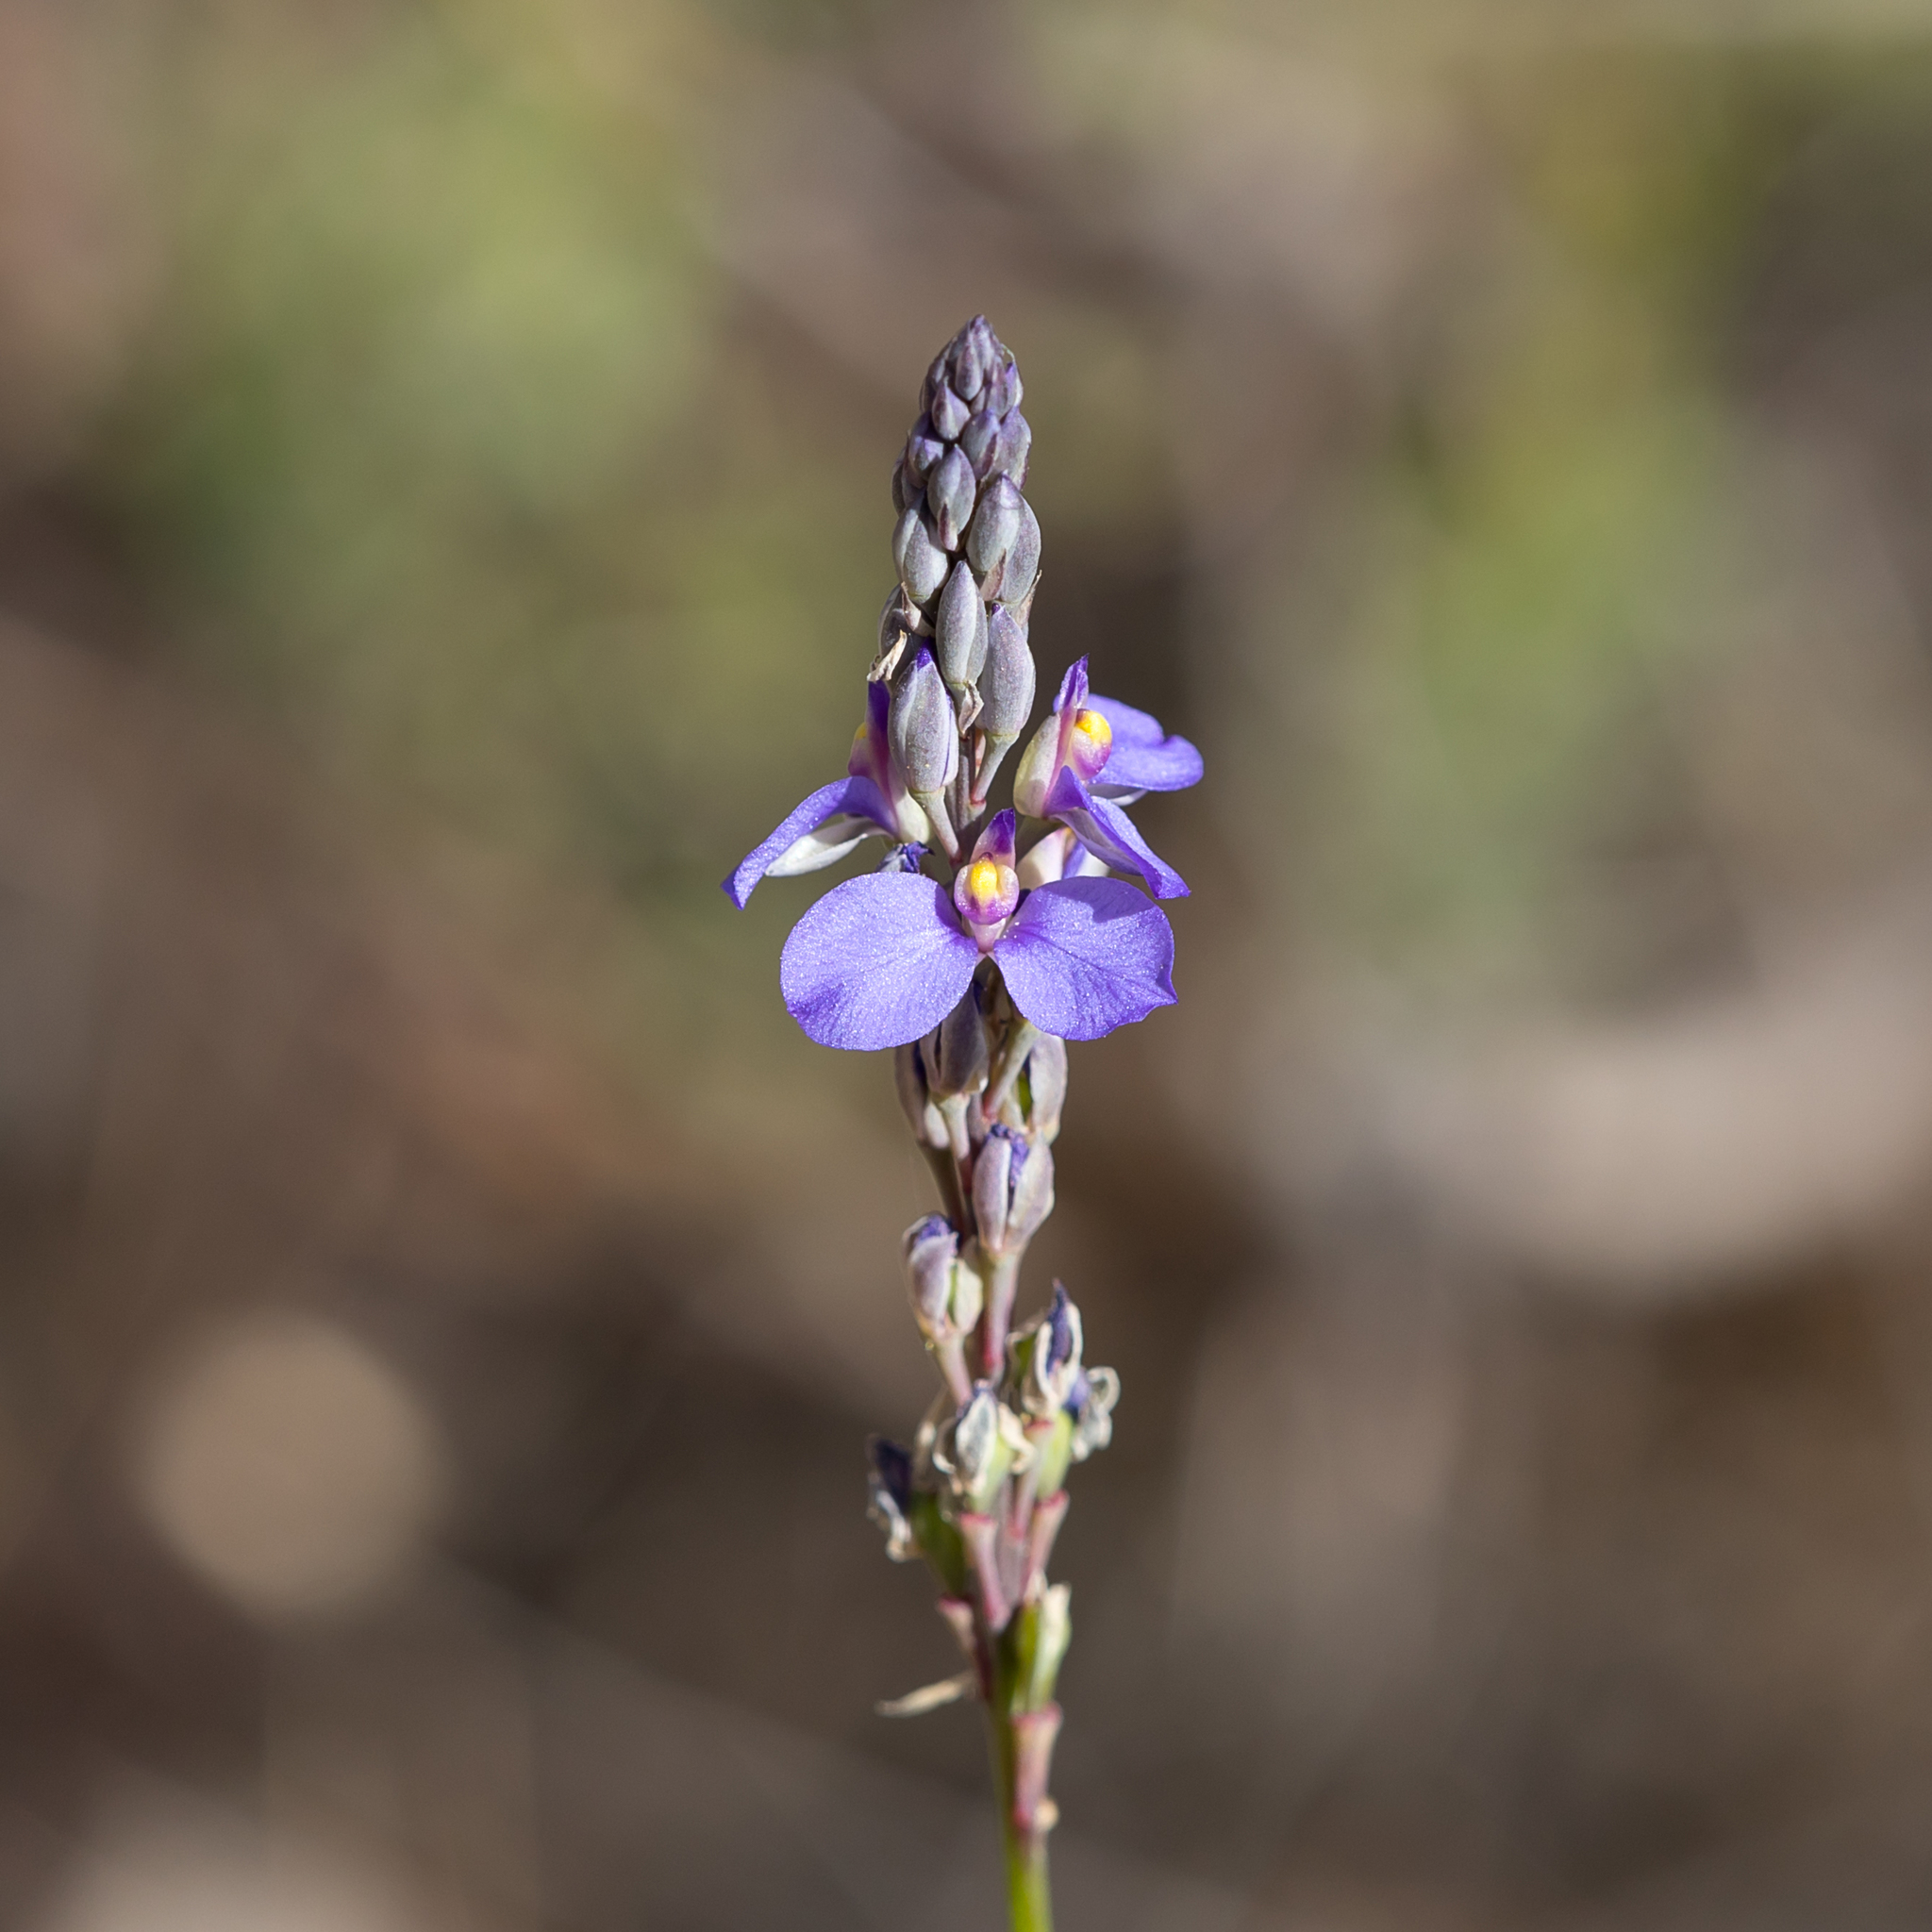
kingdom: Plantae
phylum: Tracheophyta
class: Magnoliopsida
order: Fabales
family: Polygalaceae
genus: Comesperma
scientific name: Comesperma calymega
